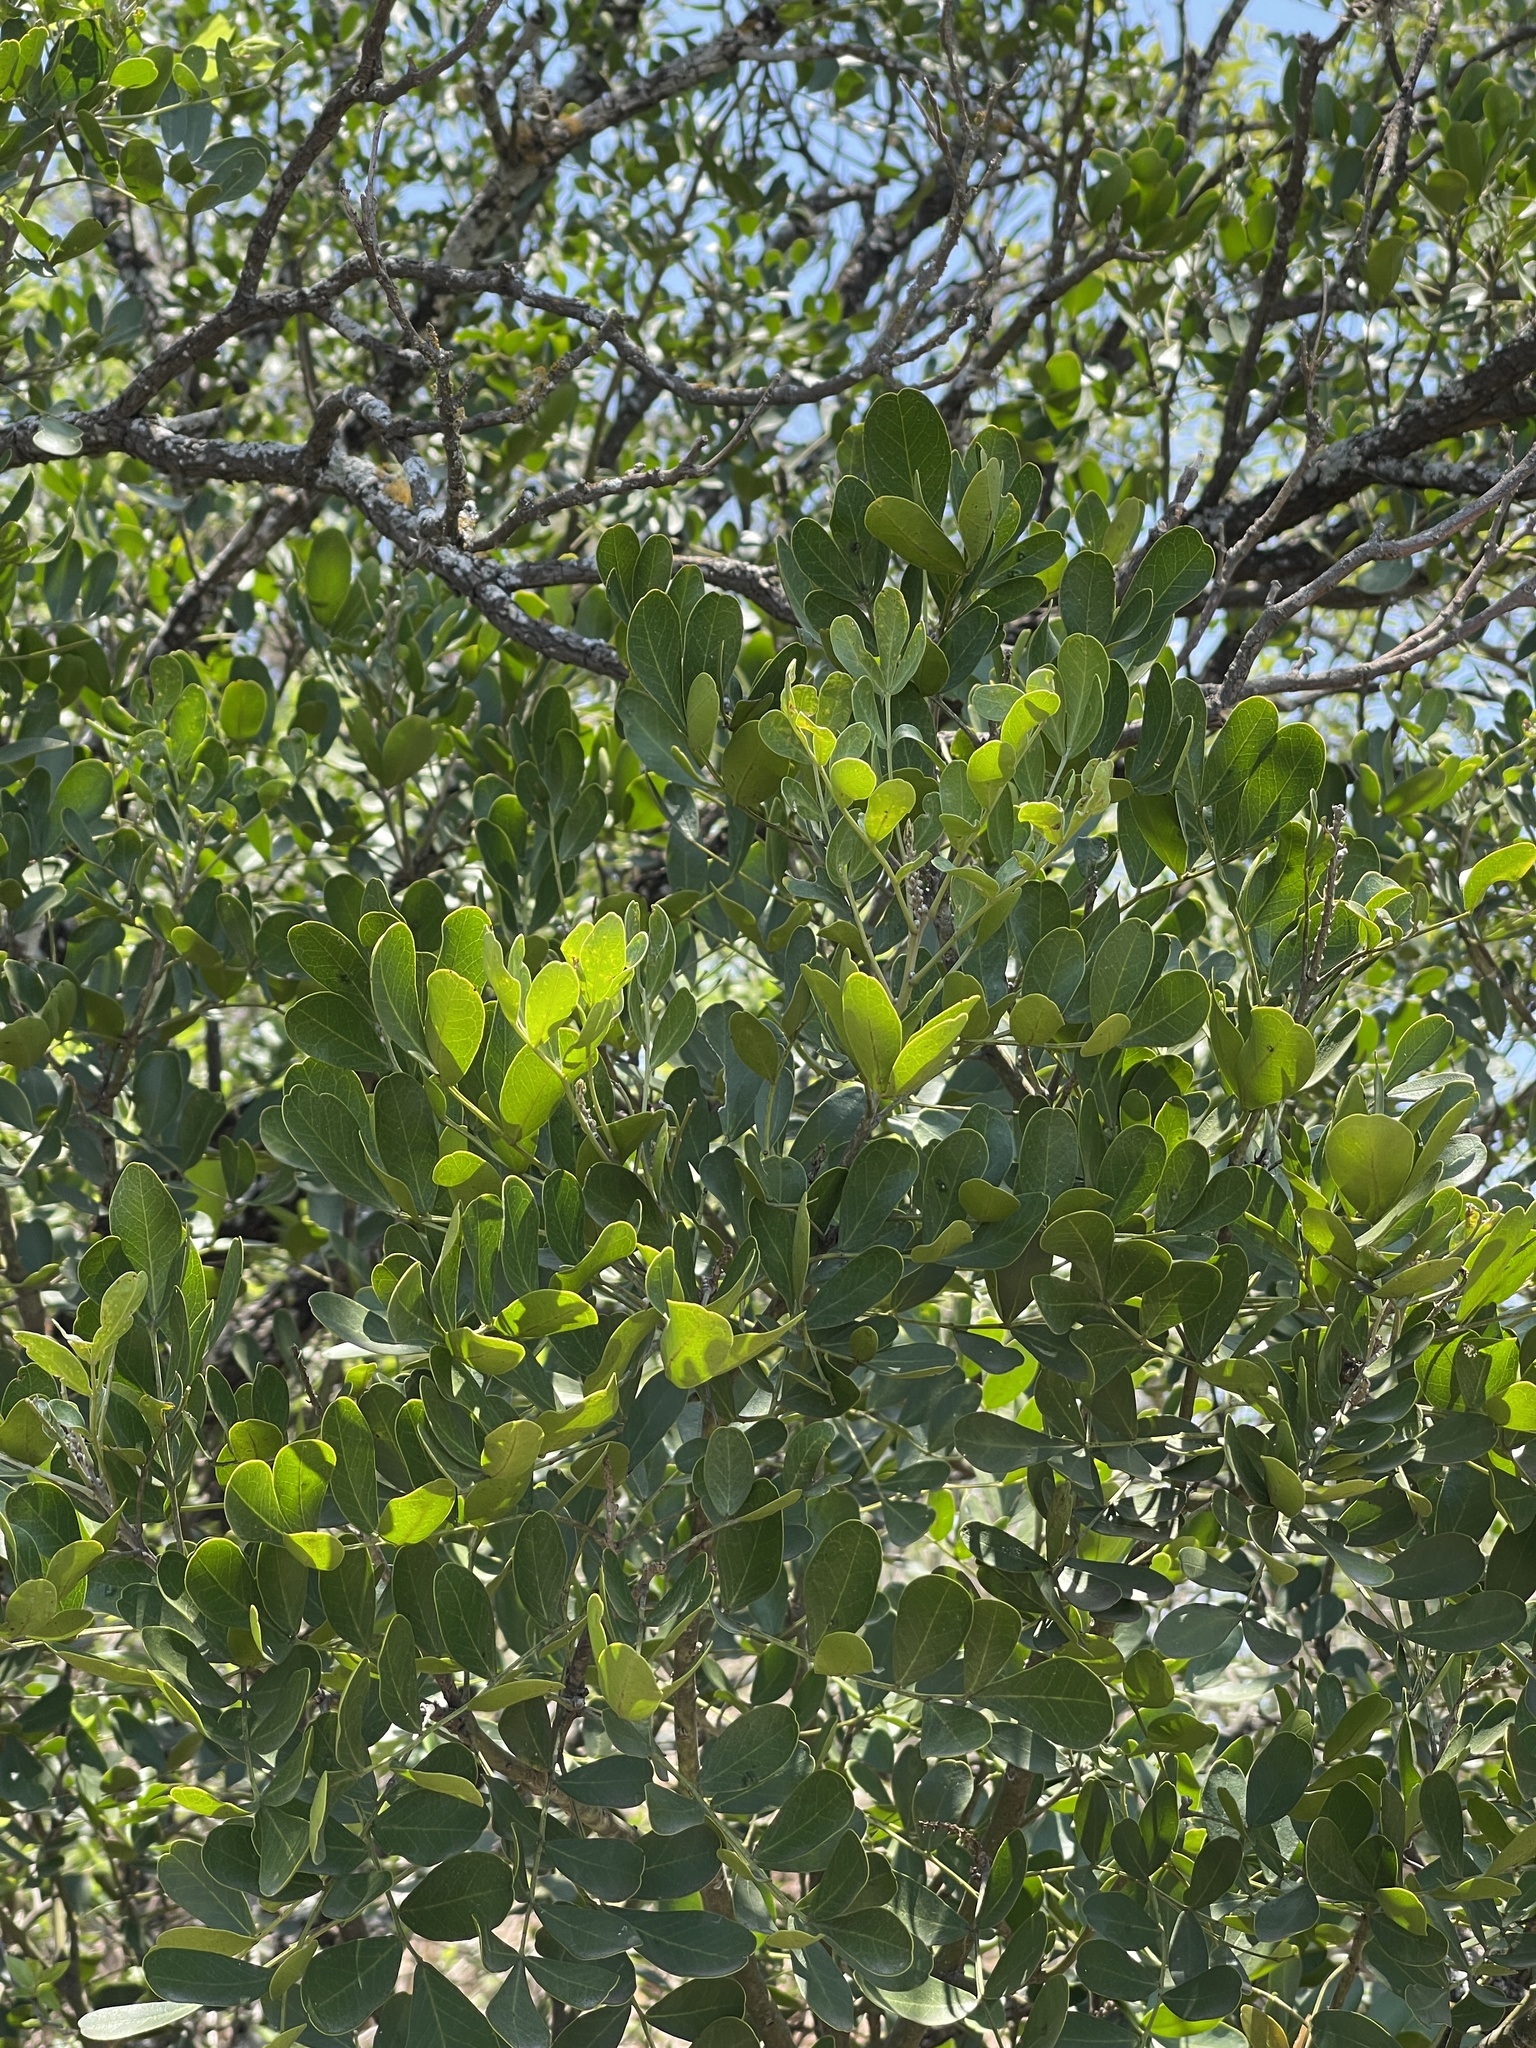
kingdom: Plantae
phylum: Tracheophyta
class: Magnoliopsida
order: Fabales
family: Fabaceae
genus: Dermatophyllum
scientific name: Dermatophyllum secundiflorum
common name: Texas-mountain-laurel
